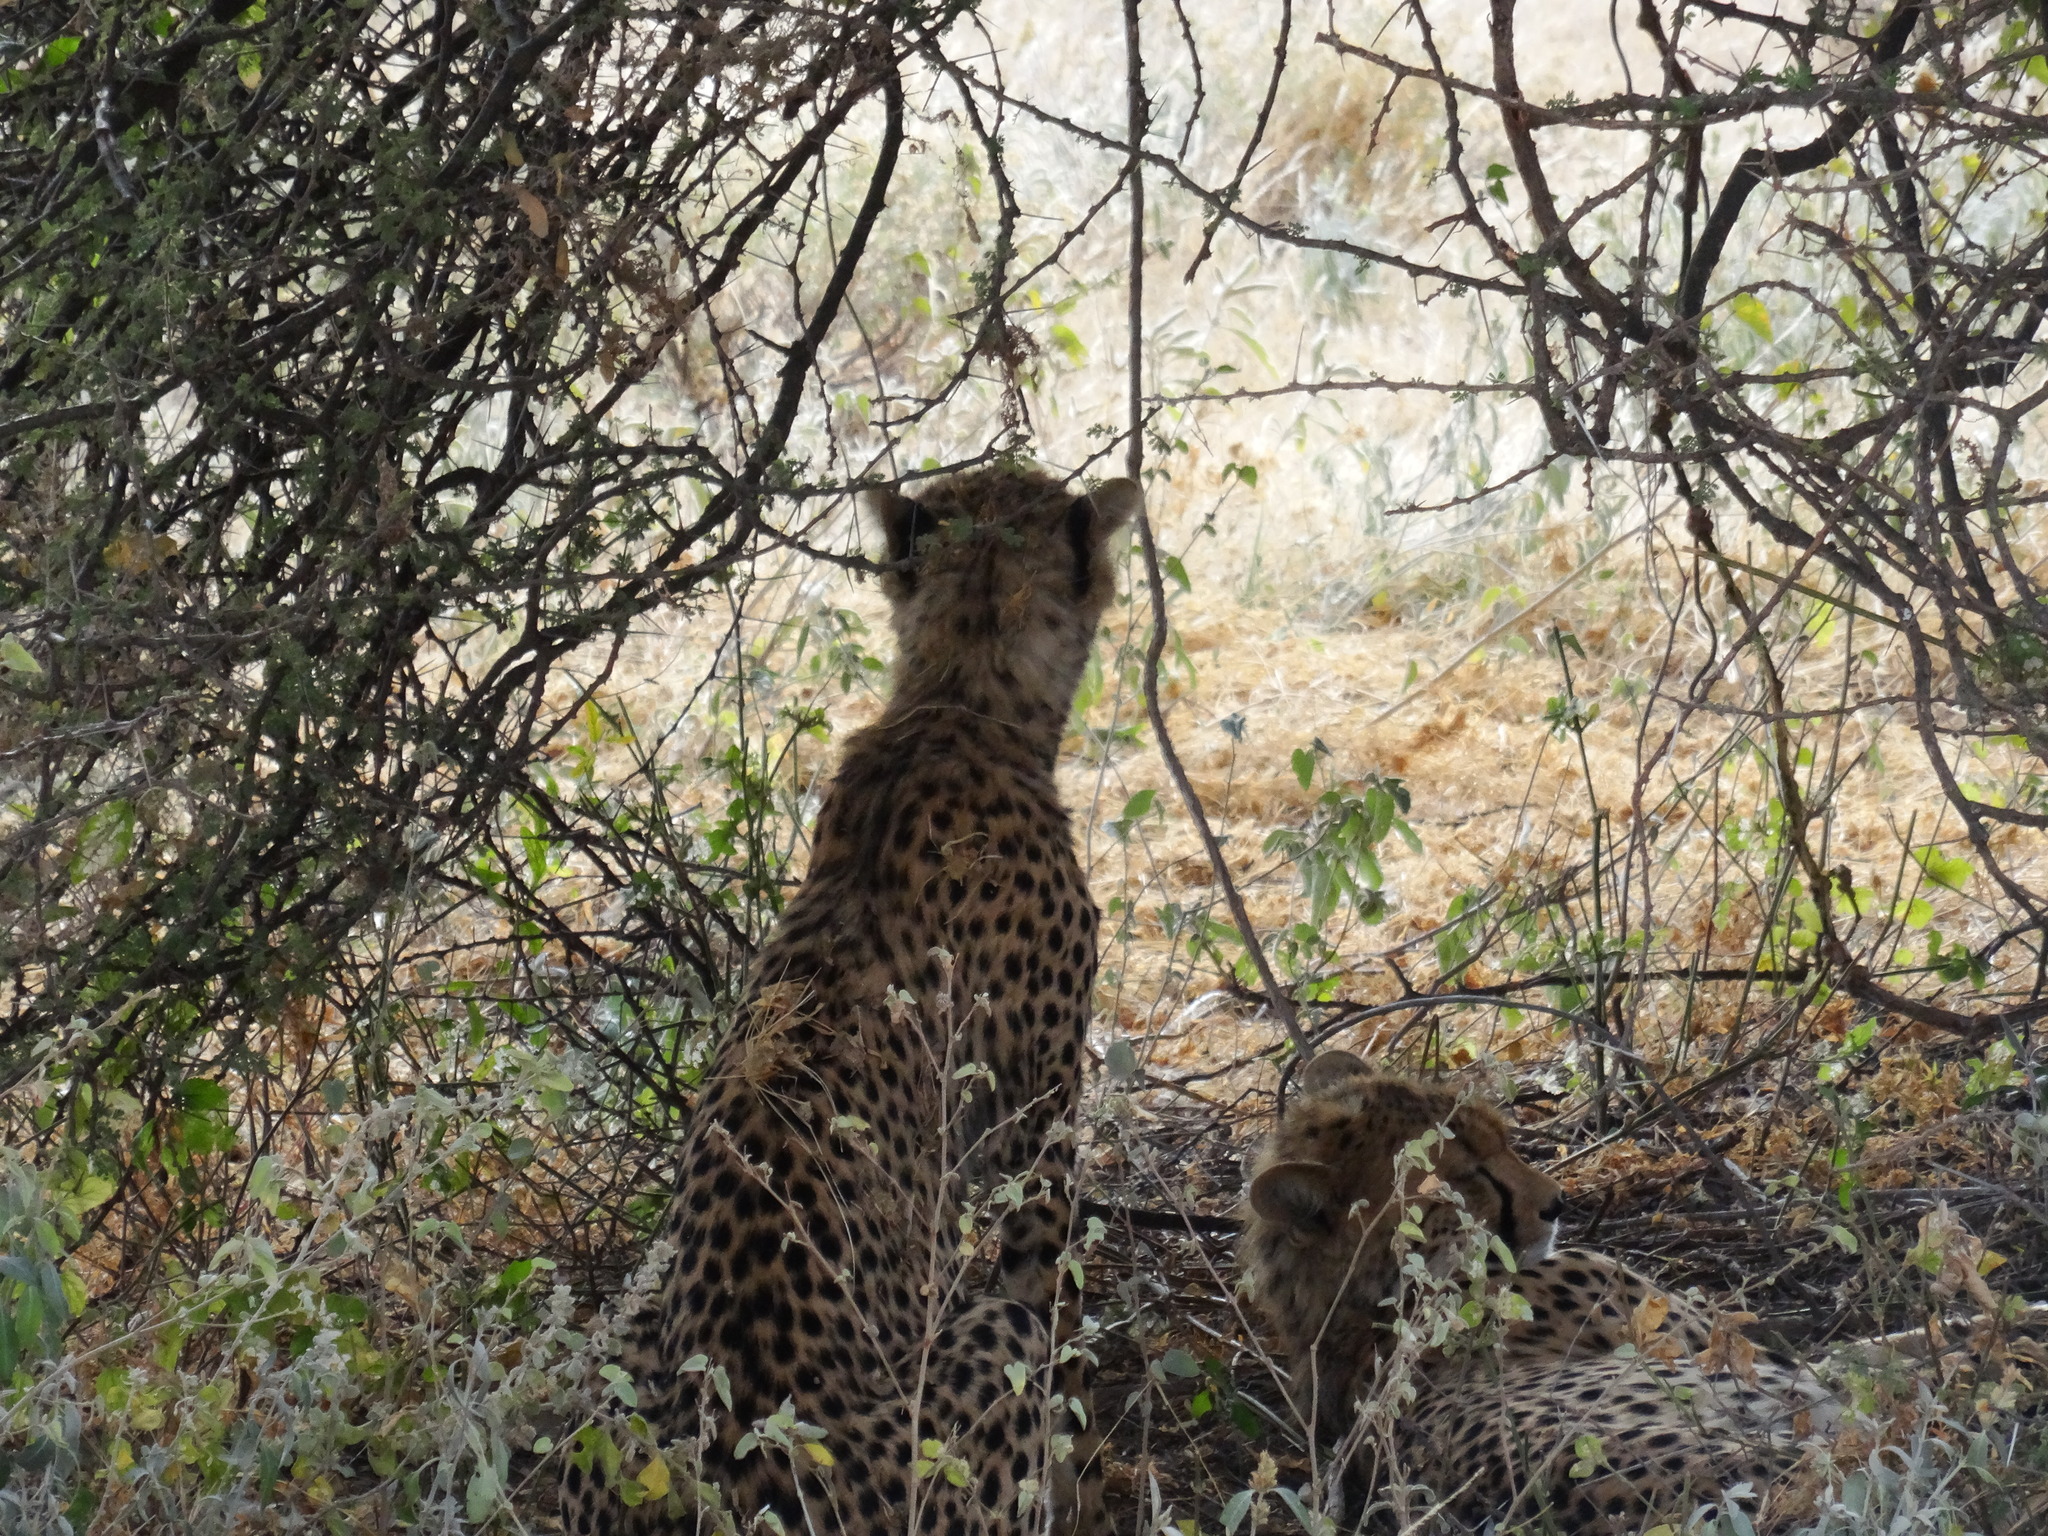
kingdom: Animalia
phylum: Chordata
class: Mammalia
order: Carnivora
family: Felidae
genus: Acinonyx
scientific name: Acinonyx jubatus
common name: Cheetah
